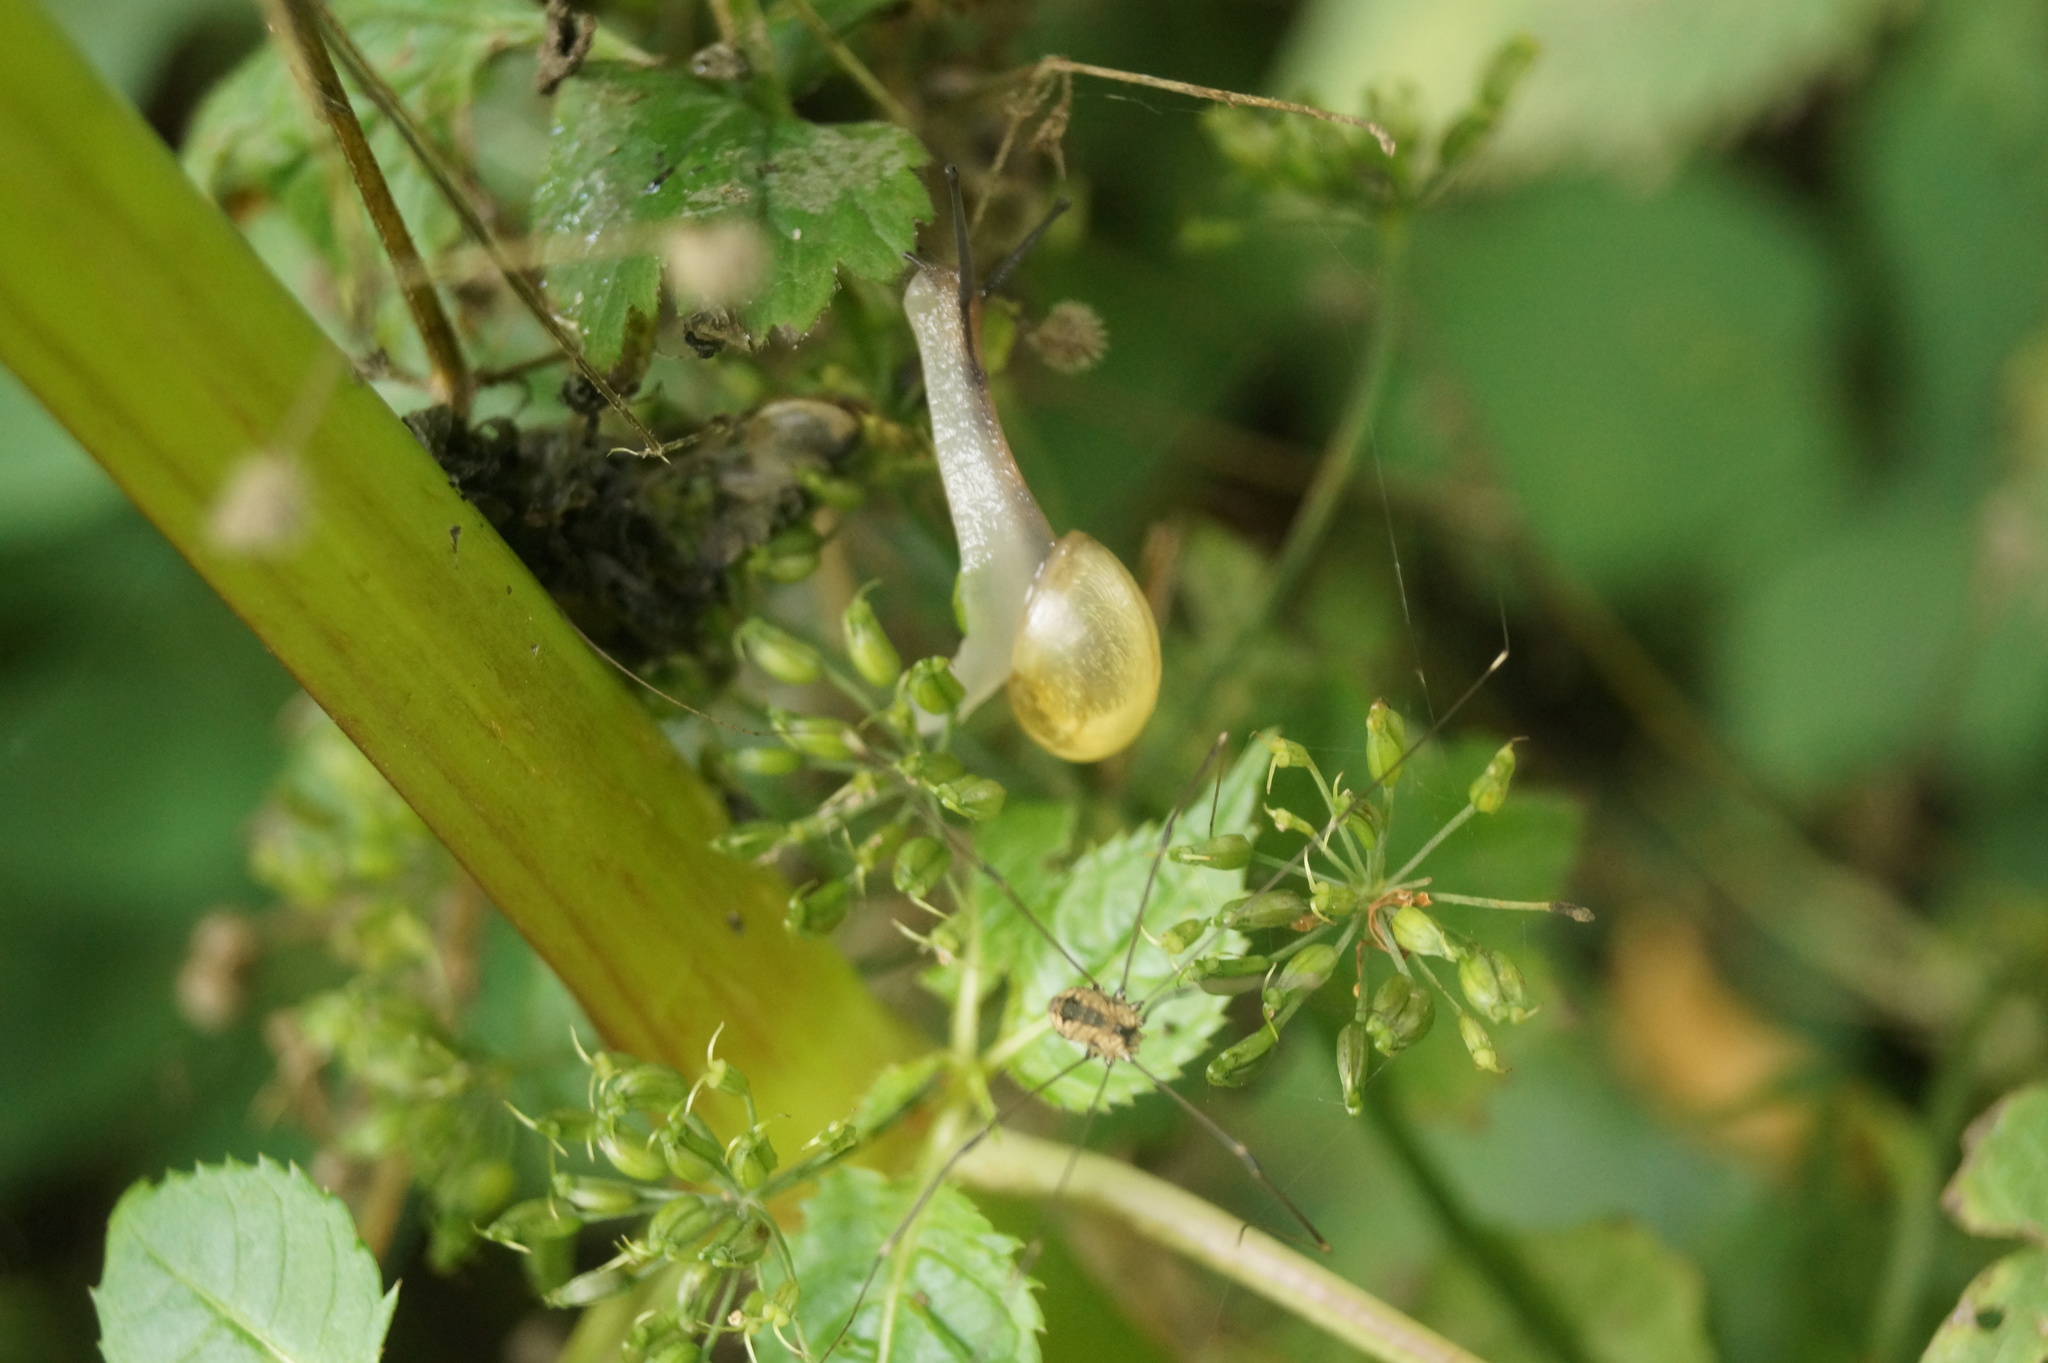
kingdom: Animalia
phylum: Arthropoda
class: Arachnida
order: Opiliones
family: Sclerosomatidae
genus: Leiobunum
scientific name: Leiobunum rotundum
